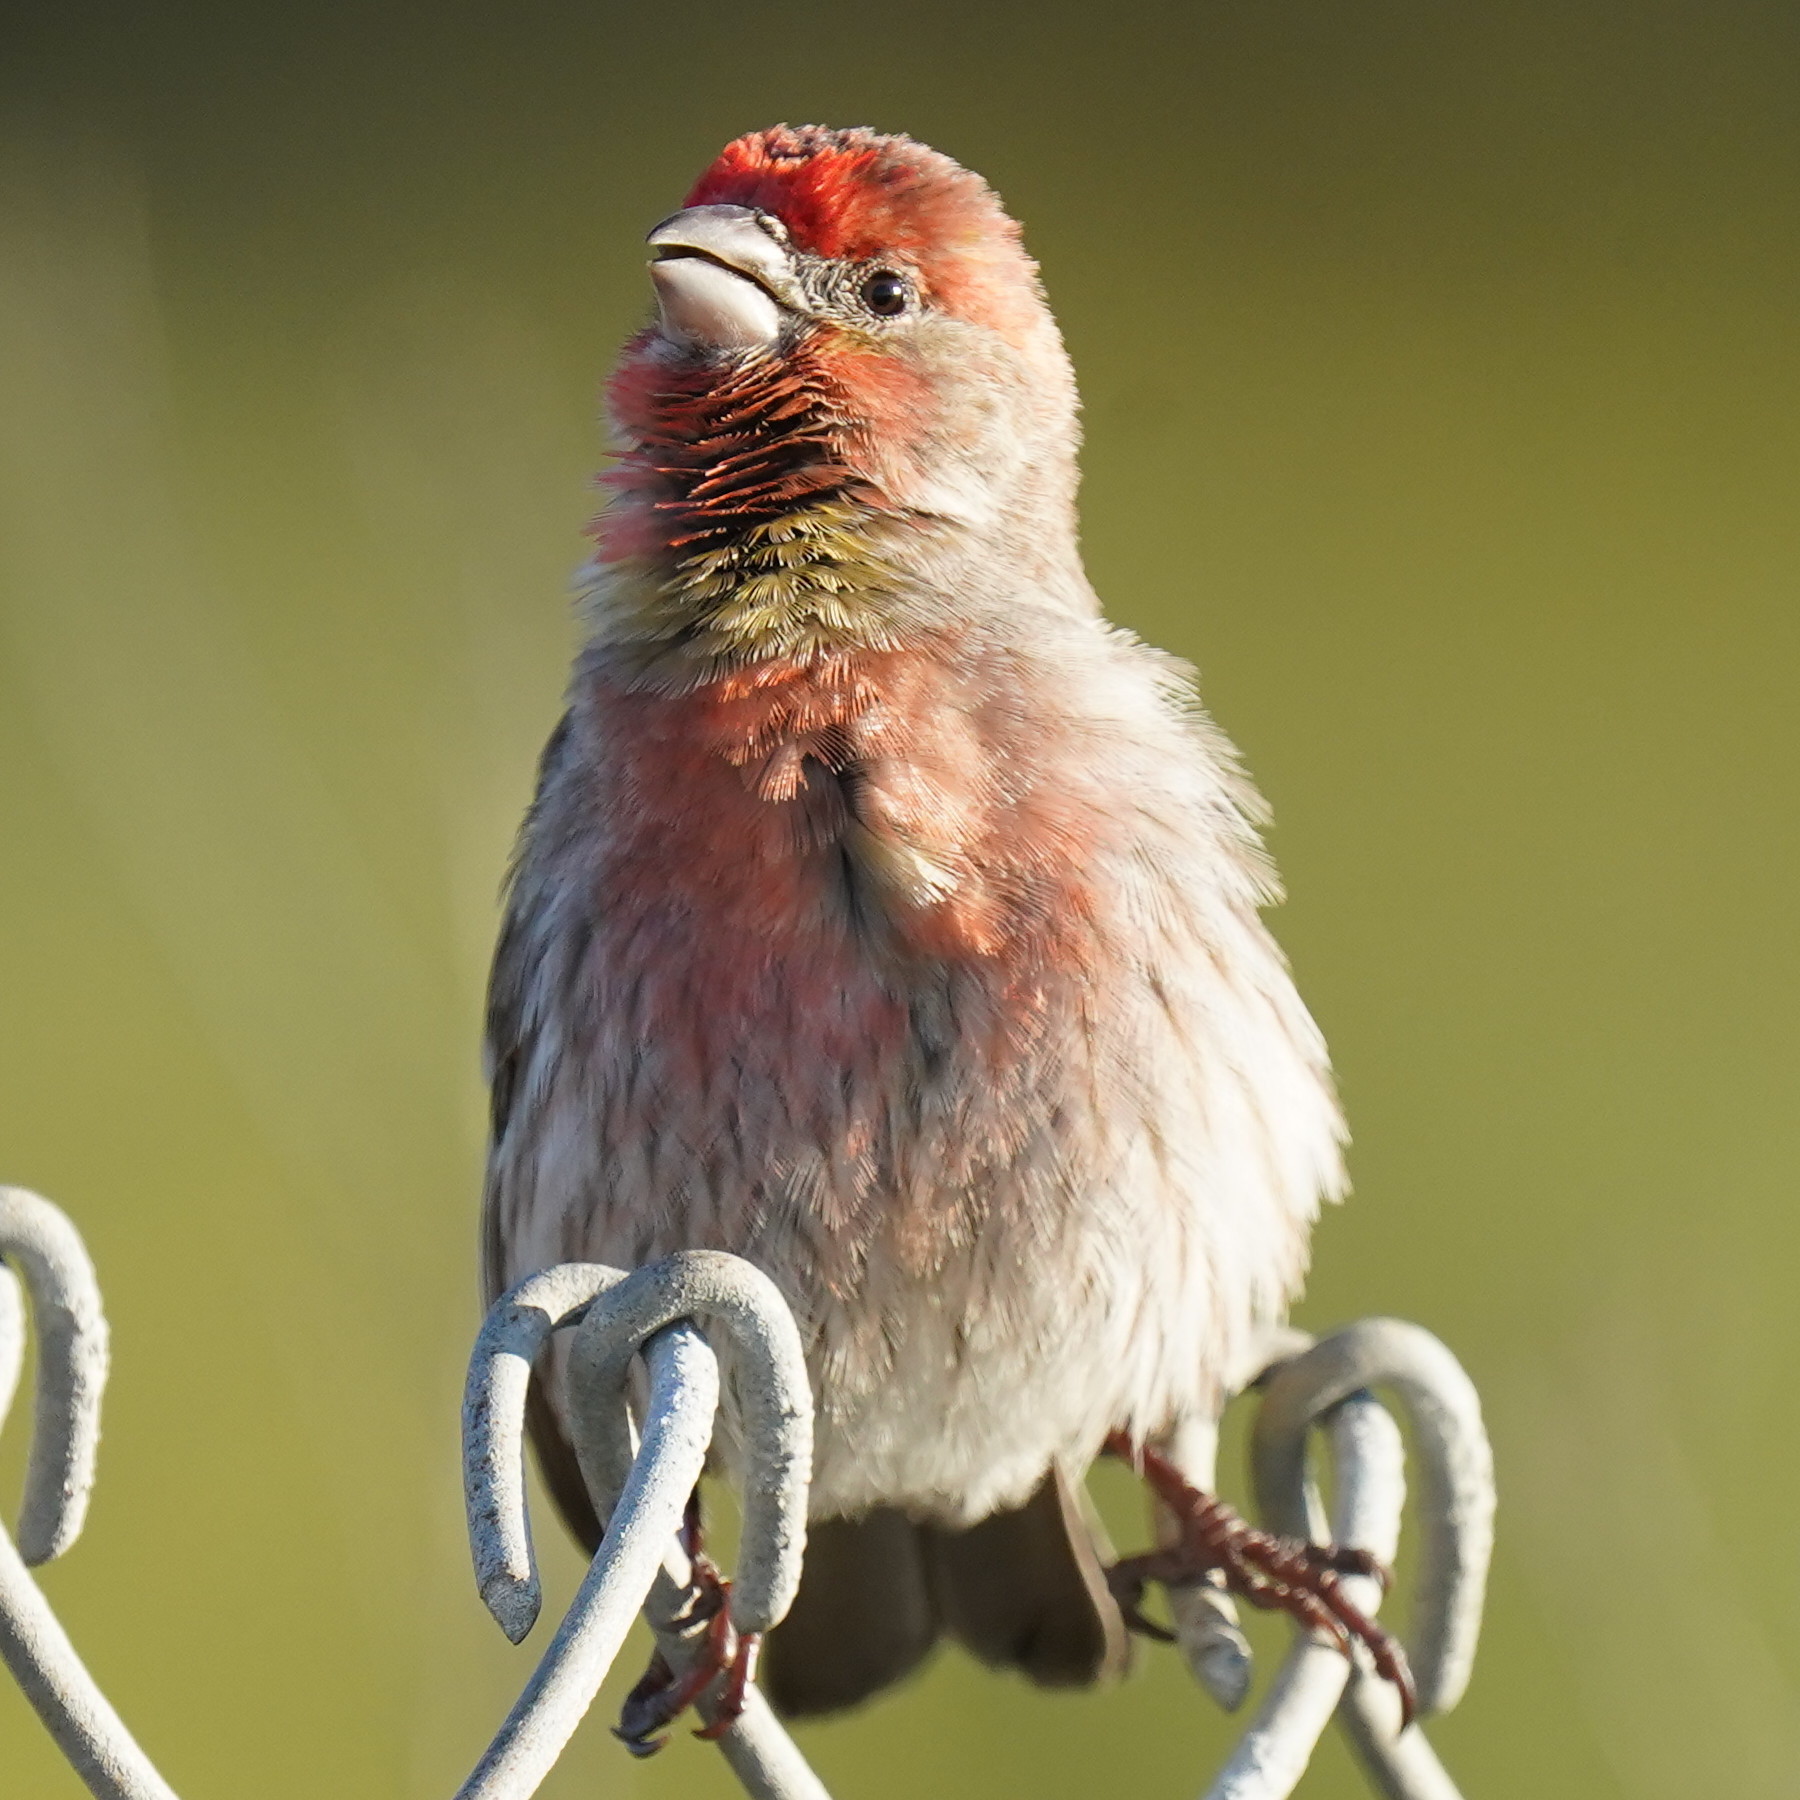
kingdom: Animalia
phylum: Chordata
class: Aves
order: Passeriformes
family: Fringillidae
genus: Haemorhous
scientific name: Haemorhous mexicanus
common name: House finch
